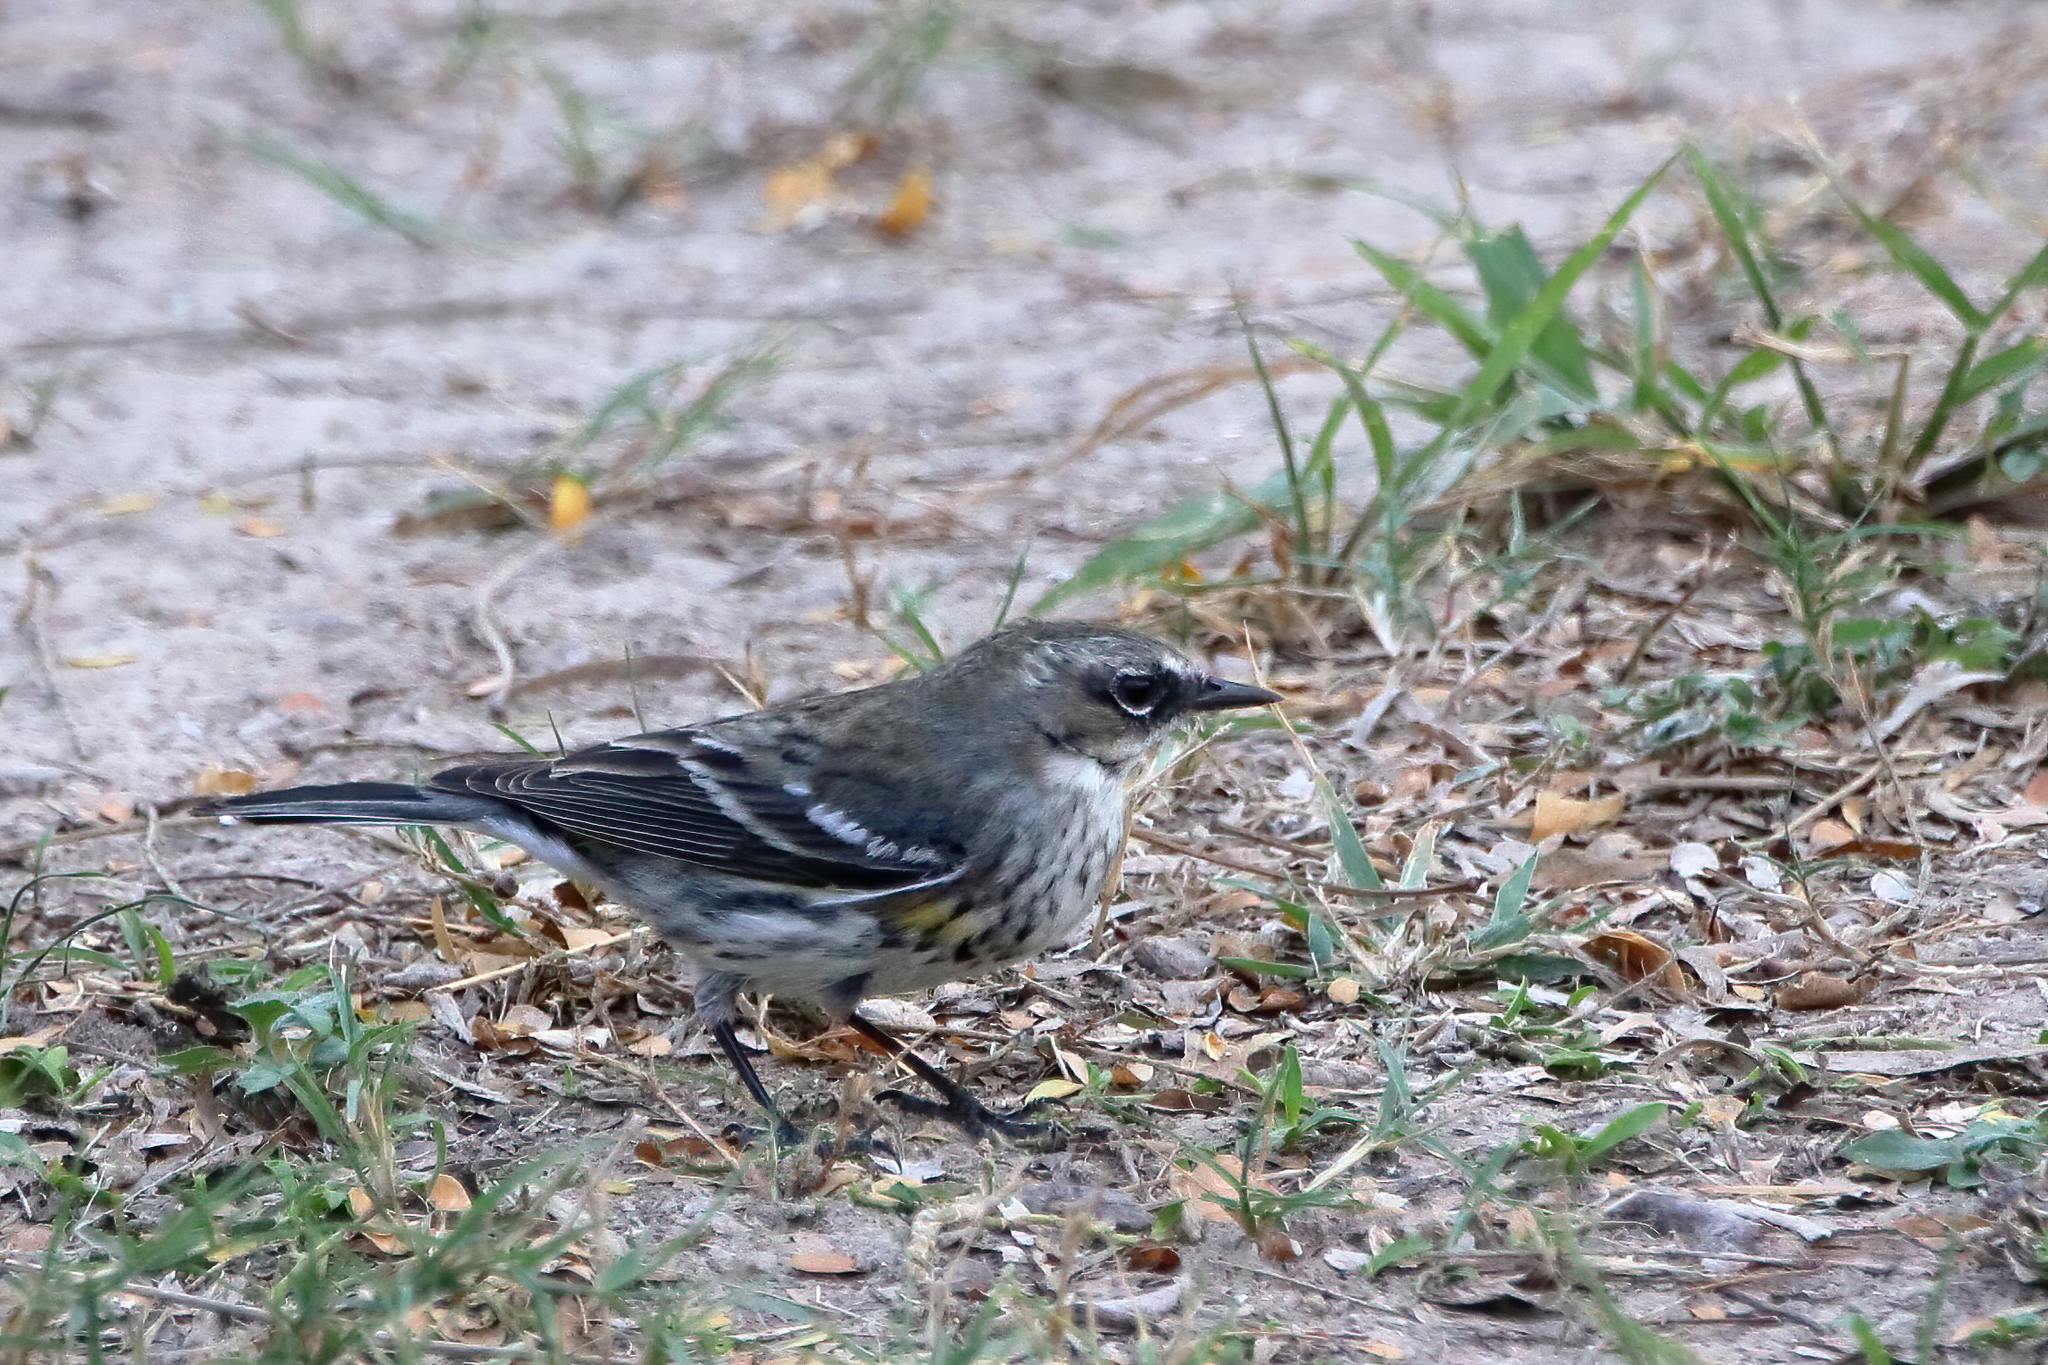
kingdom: Animalia
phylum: Chordata
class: Aves
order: Passeriformes
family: Parulidae
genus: Setophaga
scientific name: Setophaga coronata
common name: Myrtle warbler
